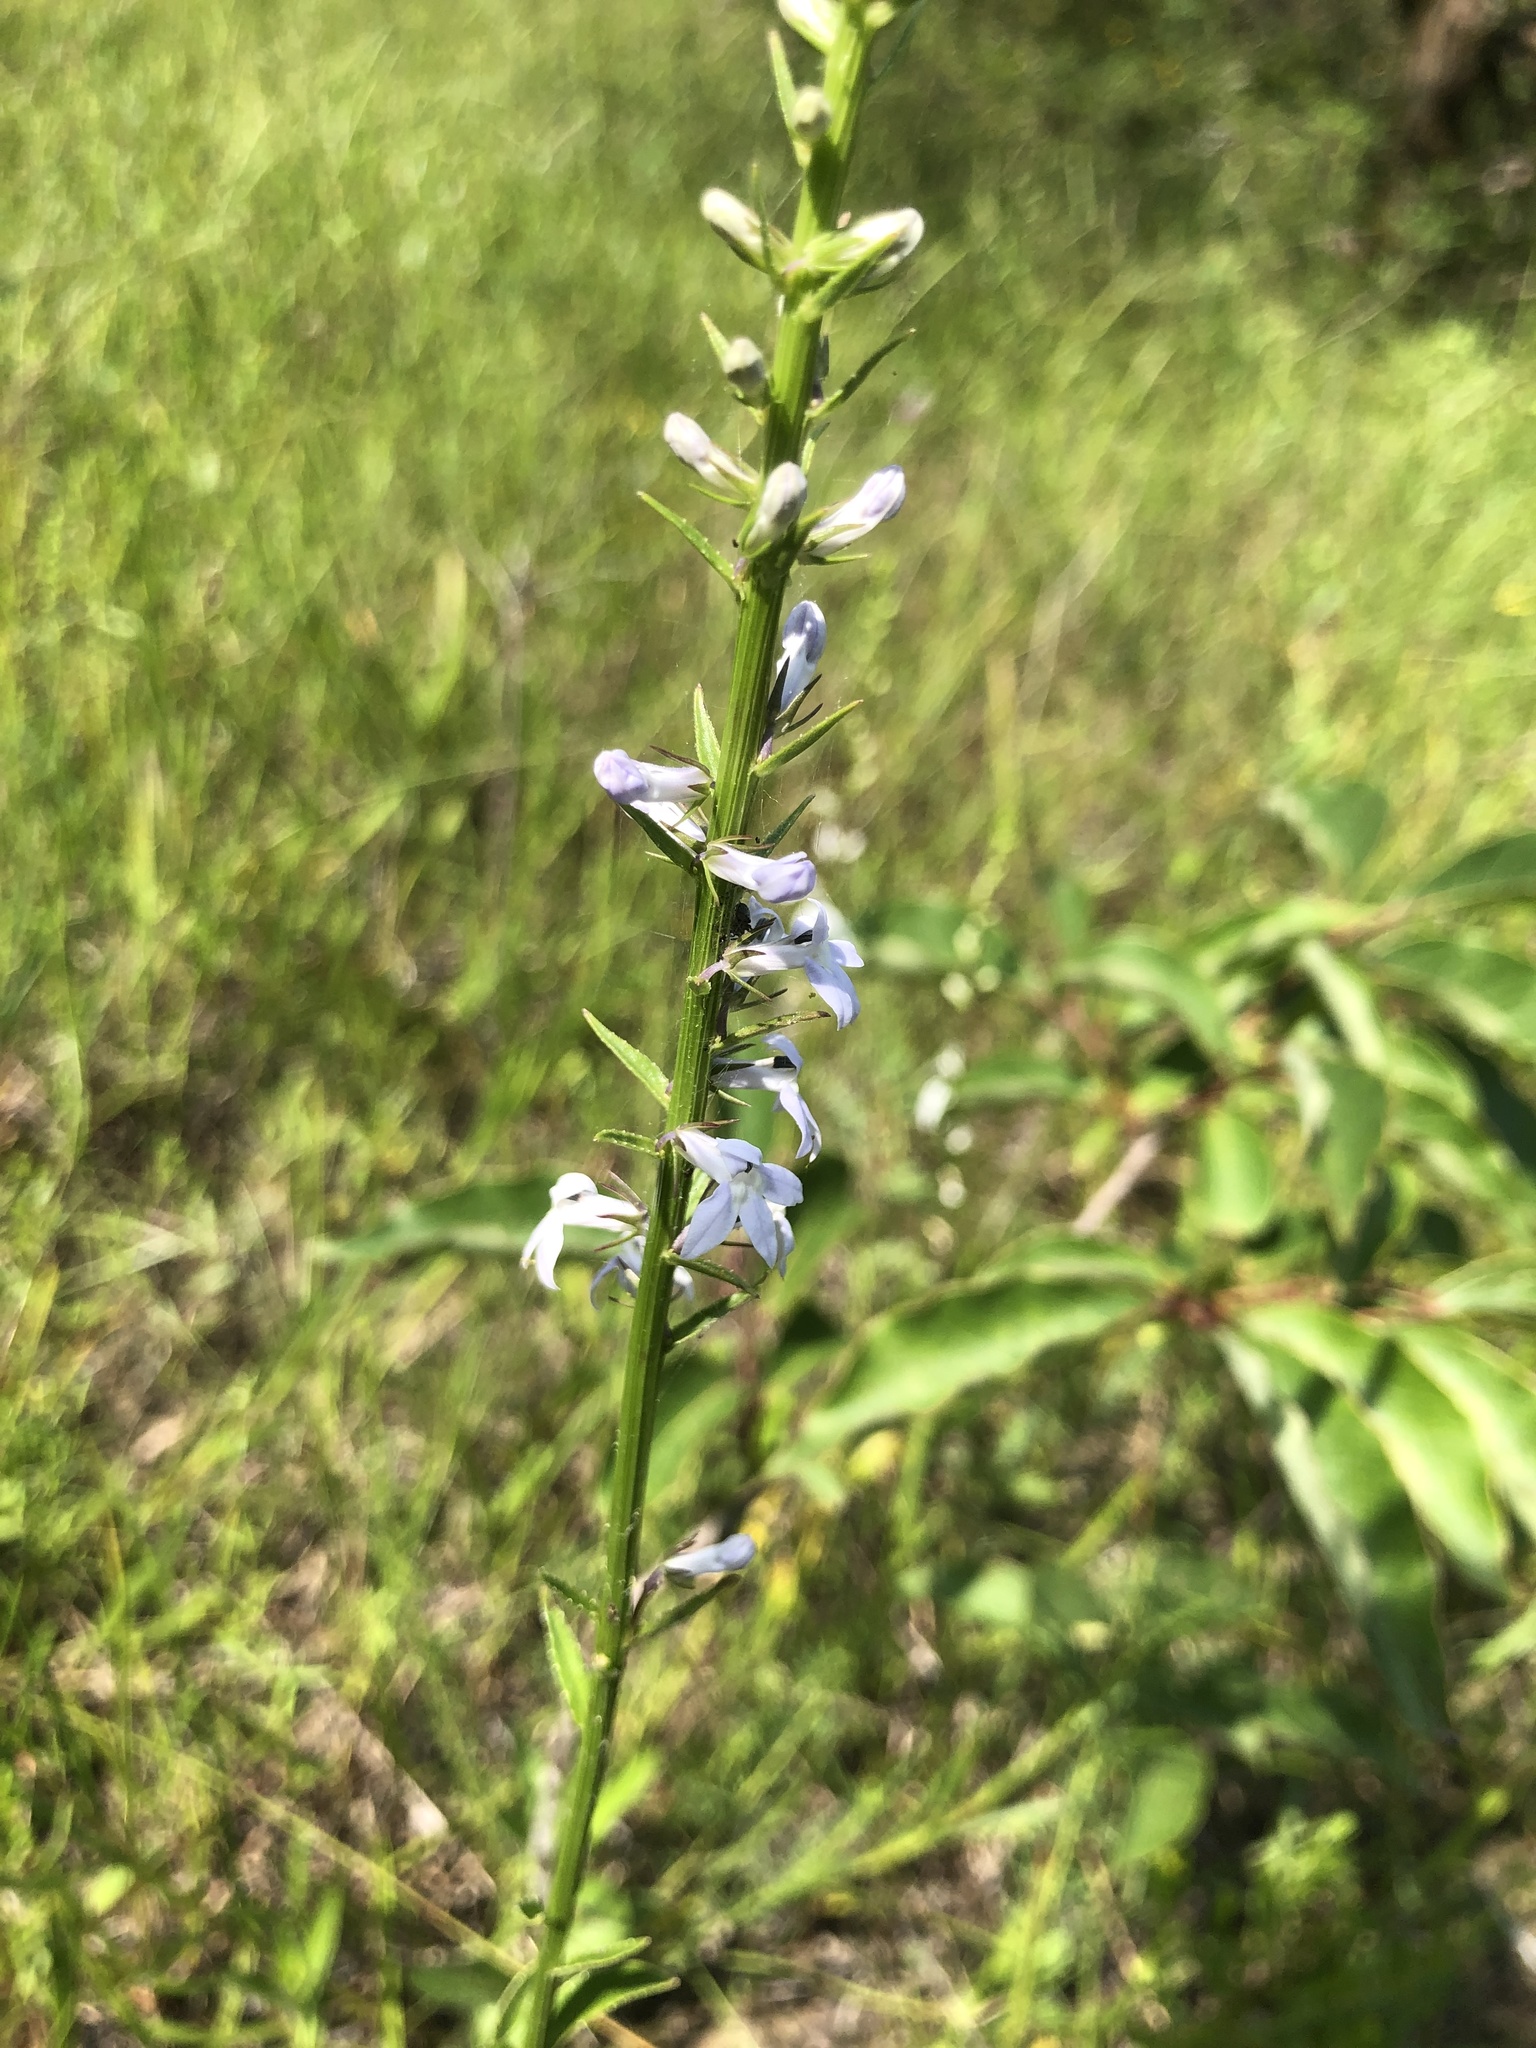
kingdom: Plantae
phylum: Tracheophyta
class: Magnoliopsida
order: Asterales
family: Campanulaceae
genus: Lobelia
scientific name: Lobelia spicata
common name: Pale-spike lobelia
